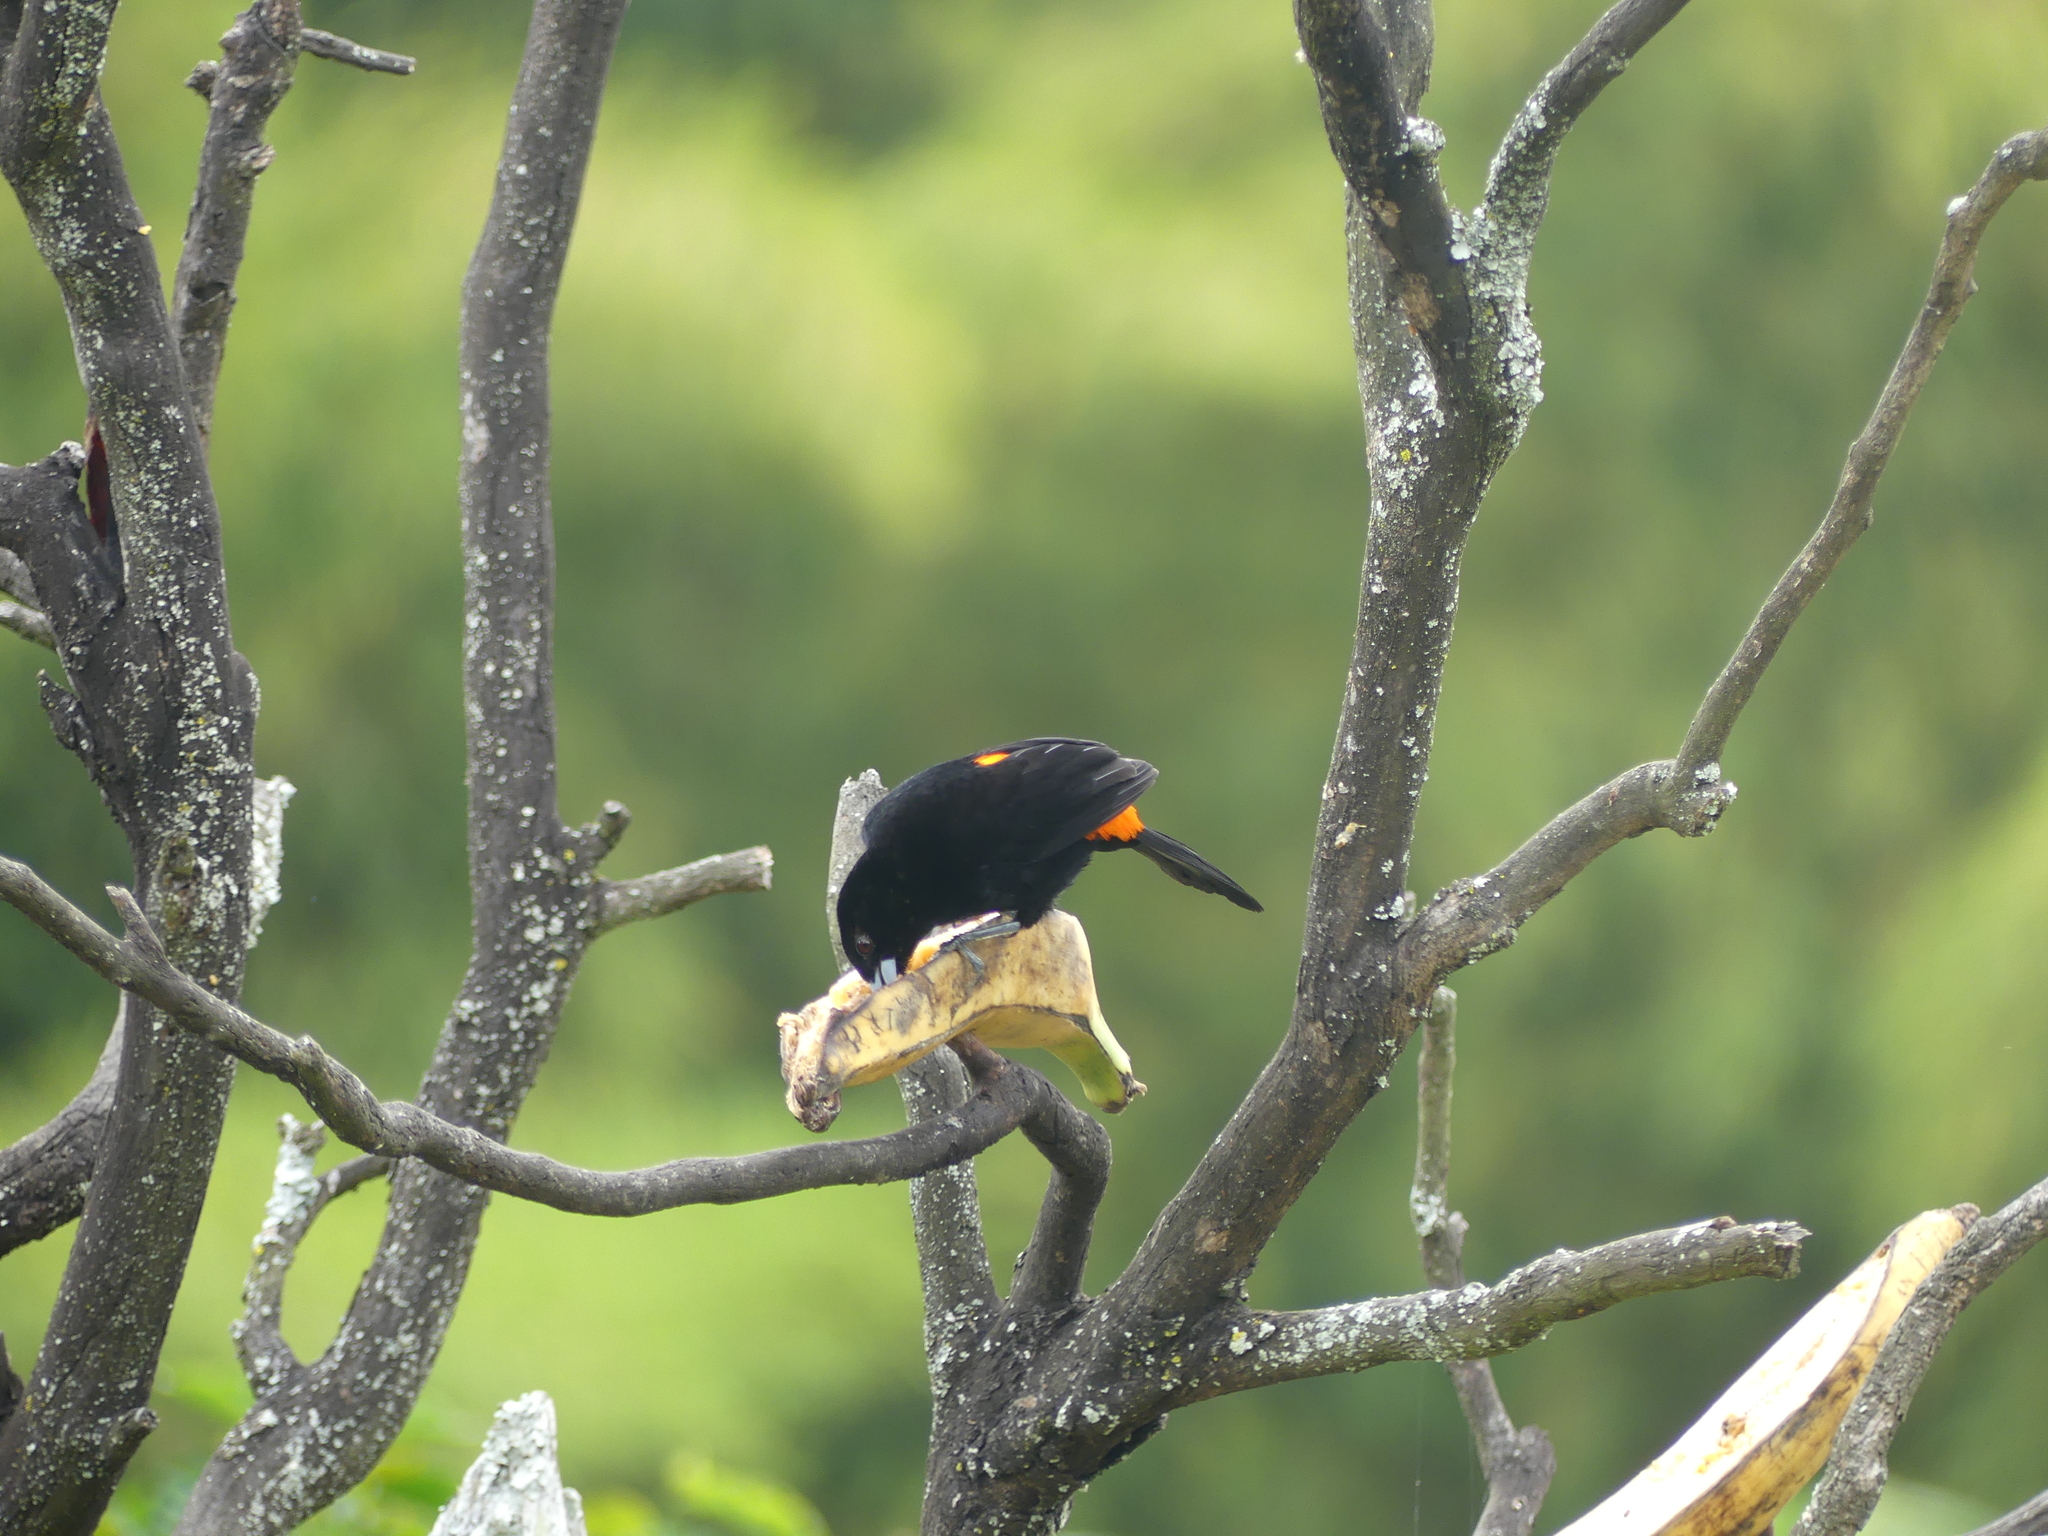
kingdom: Animalia
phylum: Chordata
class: Aves
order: Passeriformes
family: Thraupidae
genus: Ramphocelus
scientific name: Ramphocelus flammigerus
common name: Flame-rumped tanager
